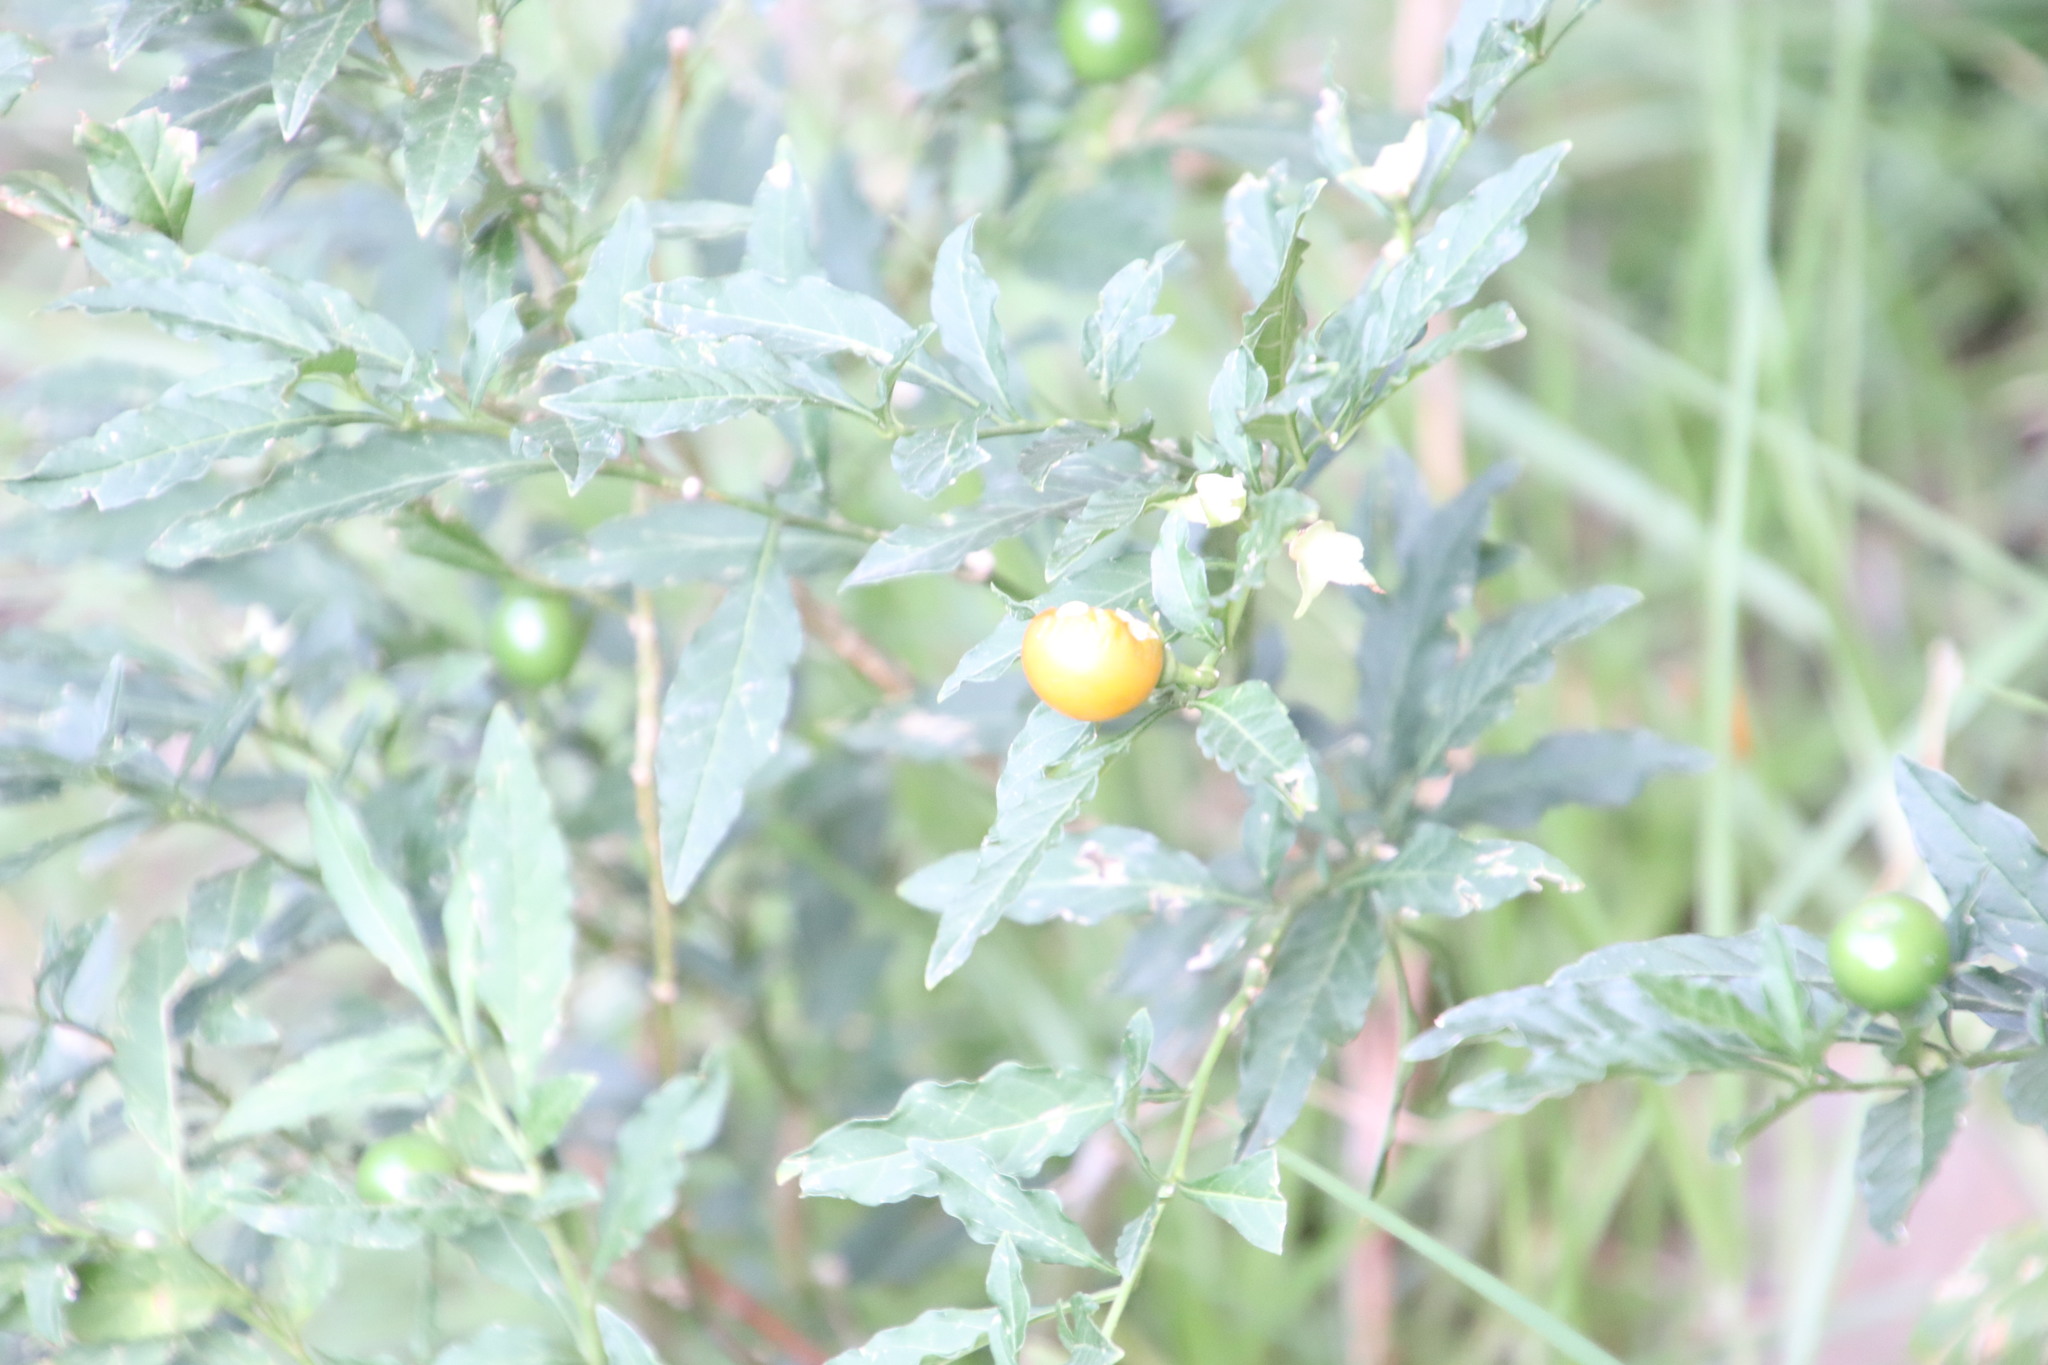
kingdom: Plantae
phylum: Tracheophyta
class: Magnoliopsida
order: Solanales
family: Solanaceae
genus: Solanum
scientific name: Solanum pseudocapsicum
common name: Jerusalem cherry
